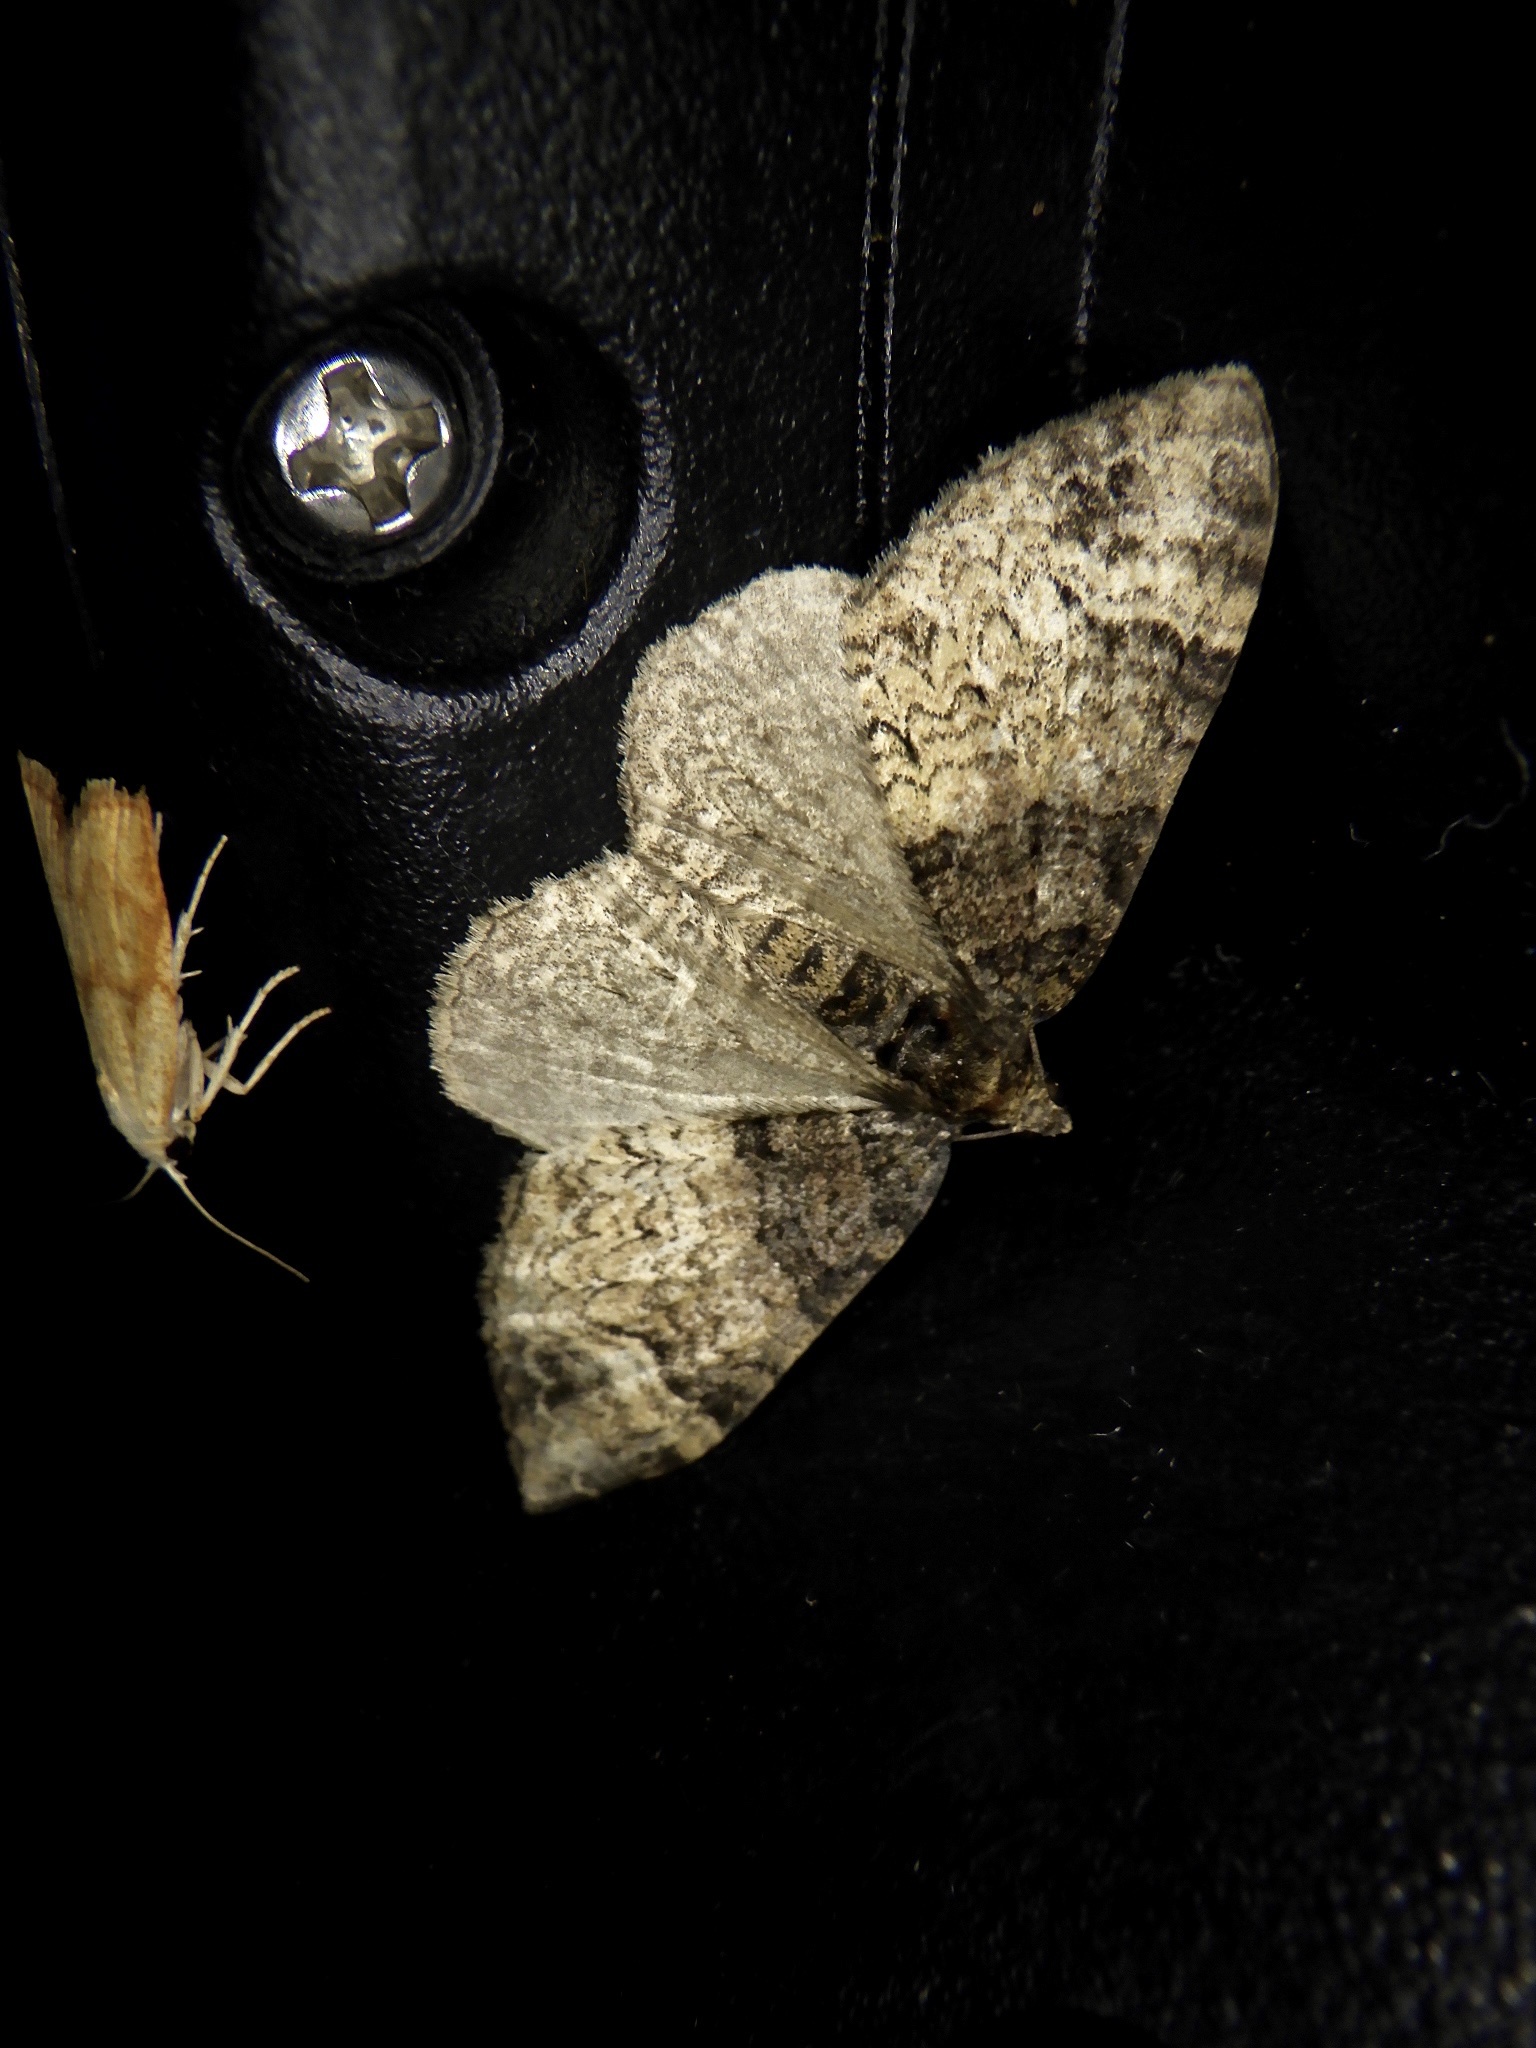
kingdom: Animalia
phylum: Arthropoda
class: Insecta
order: Lepidoptera
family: Geometridae
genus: Microcalcarifera
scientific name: Microcalcarifera obscura
